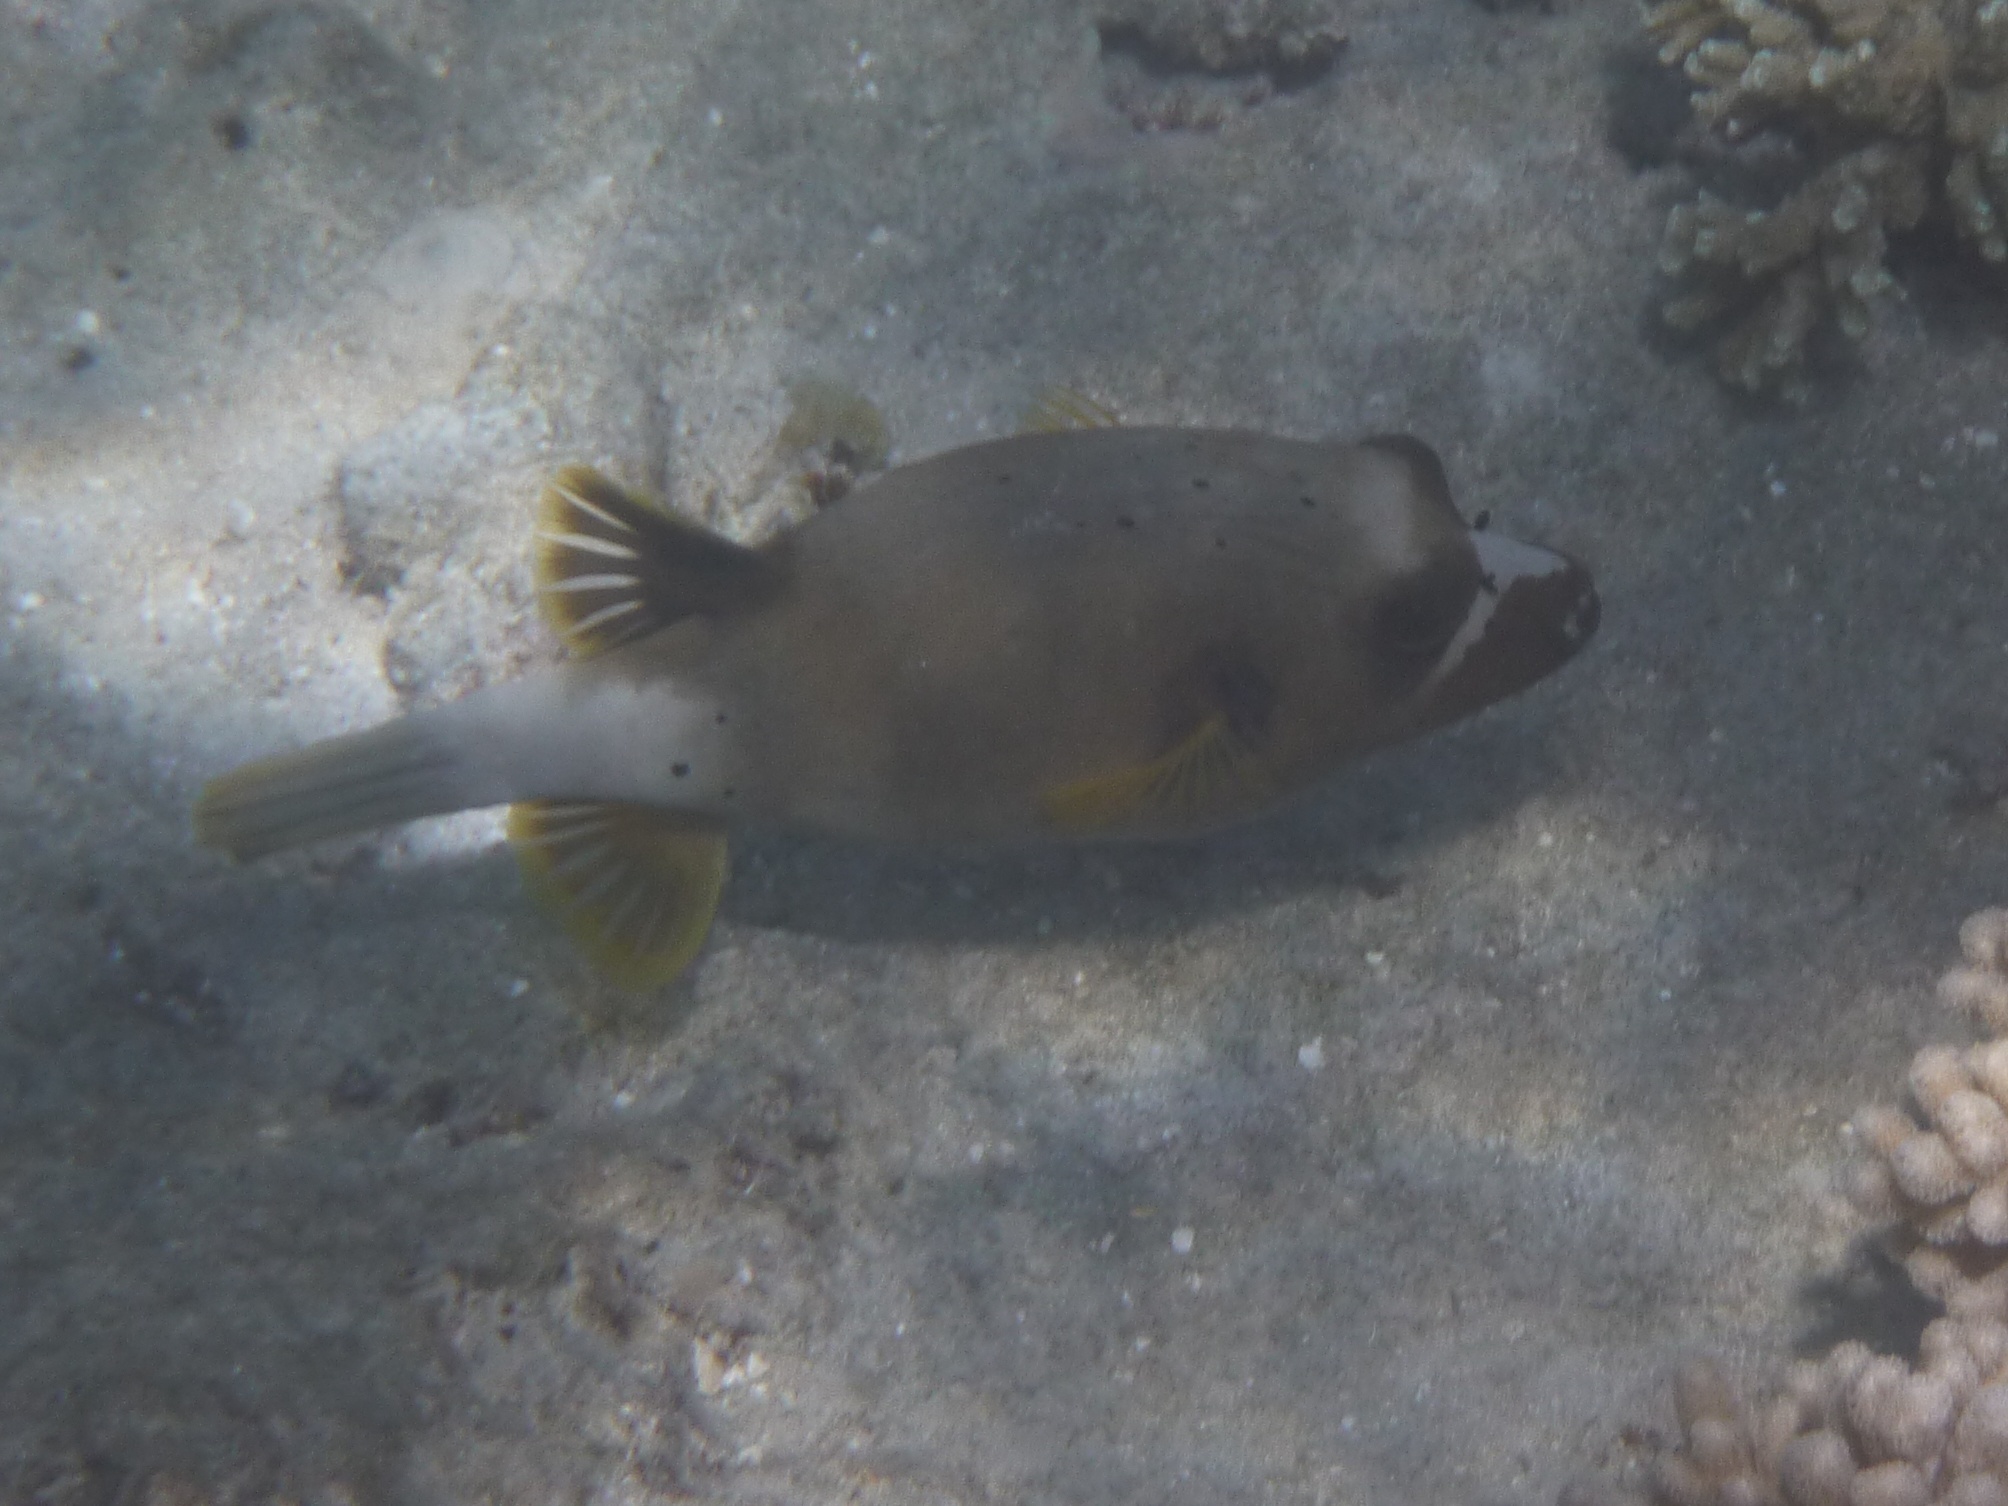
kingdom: Animalia
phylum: Chordata
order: Tetraodontiformes
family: Tetraodontidae
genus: Arothron
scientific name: Arothron nigropunctatus
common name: Black spotted blow fish
